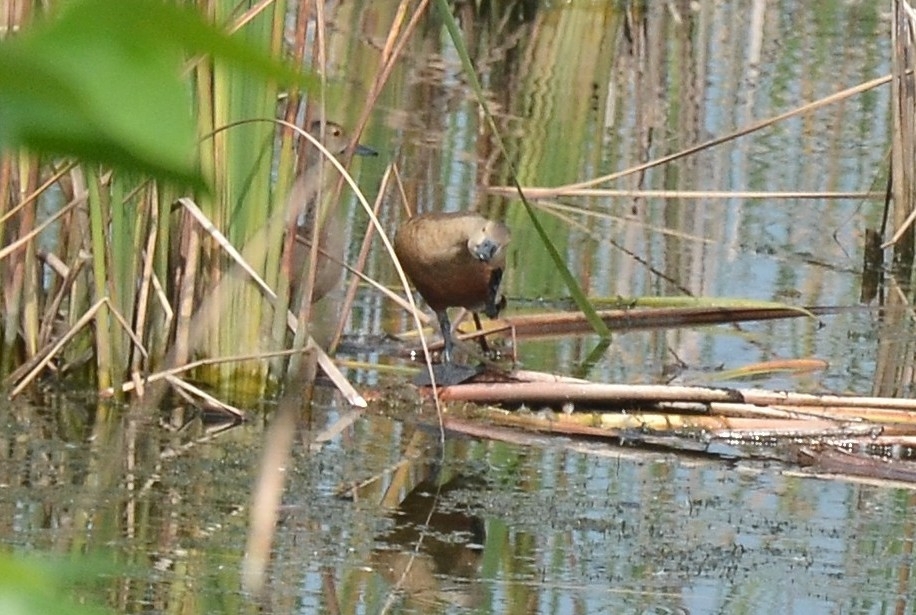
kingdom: Animalia
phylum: Chordata
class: Aves
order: Anseriformes
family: Anatidae
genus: Dendrocygna
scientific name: Dendrocygna javanica
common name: Lesser whistling-duck
